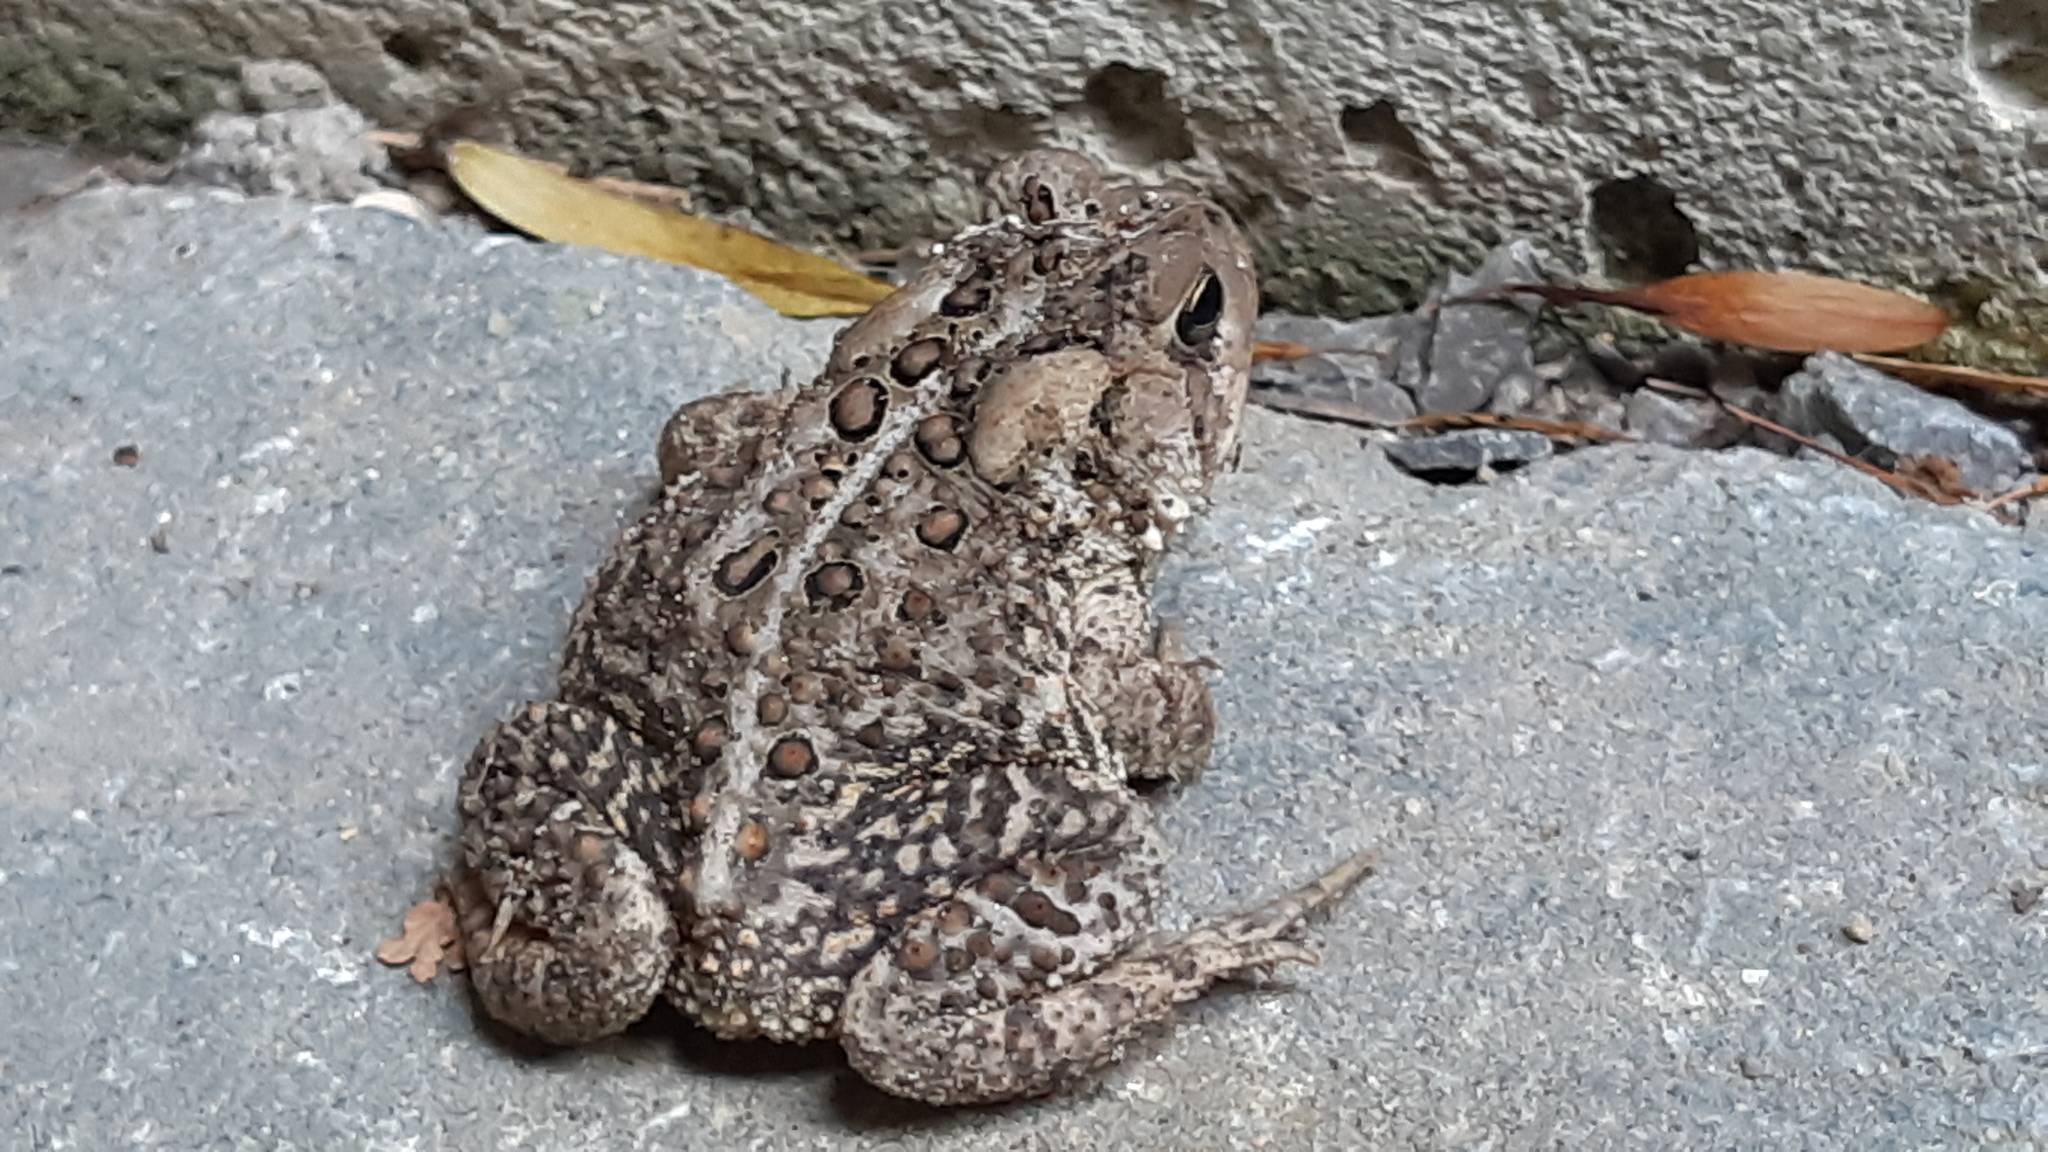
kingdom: Animalia
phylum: Chordata
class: Amphibia
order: Anura
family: Bufonidae
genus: Anaxyrus
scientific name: Anaxyrus americanus
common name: American toad
